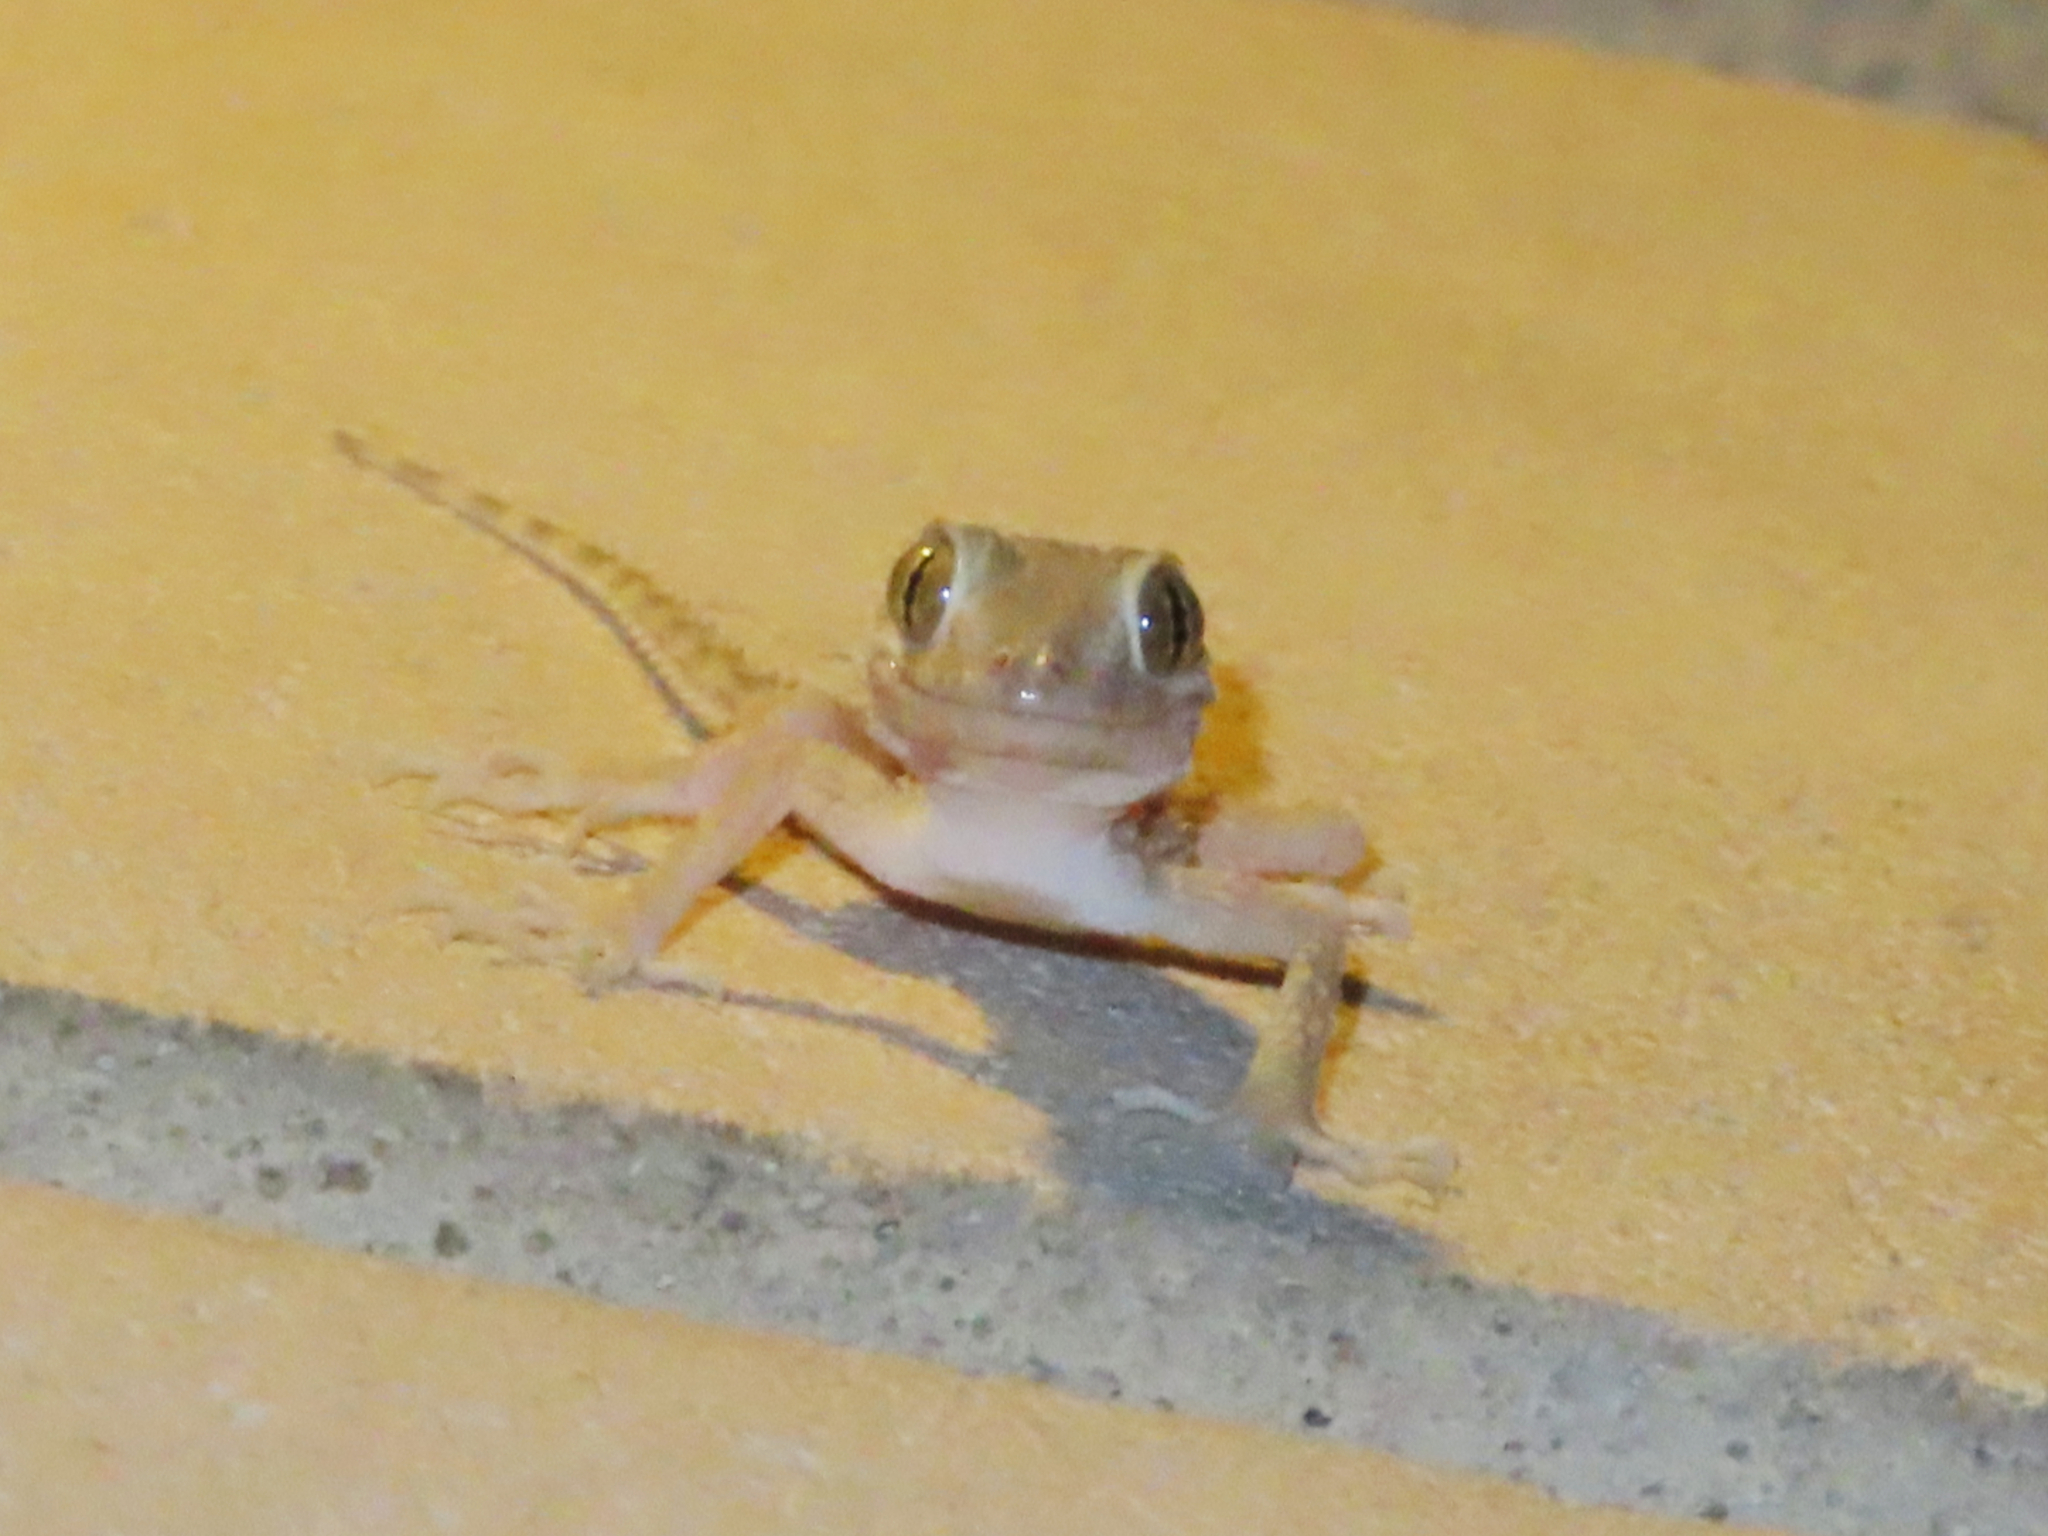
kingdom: Animalia
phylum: Chordata
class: Squamata
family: Gekkonidae
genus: Tenuidactylus
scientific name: Tenuidactylus caspius
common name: Caspian bent-toed gecko
